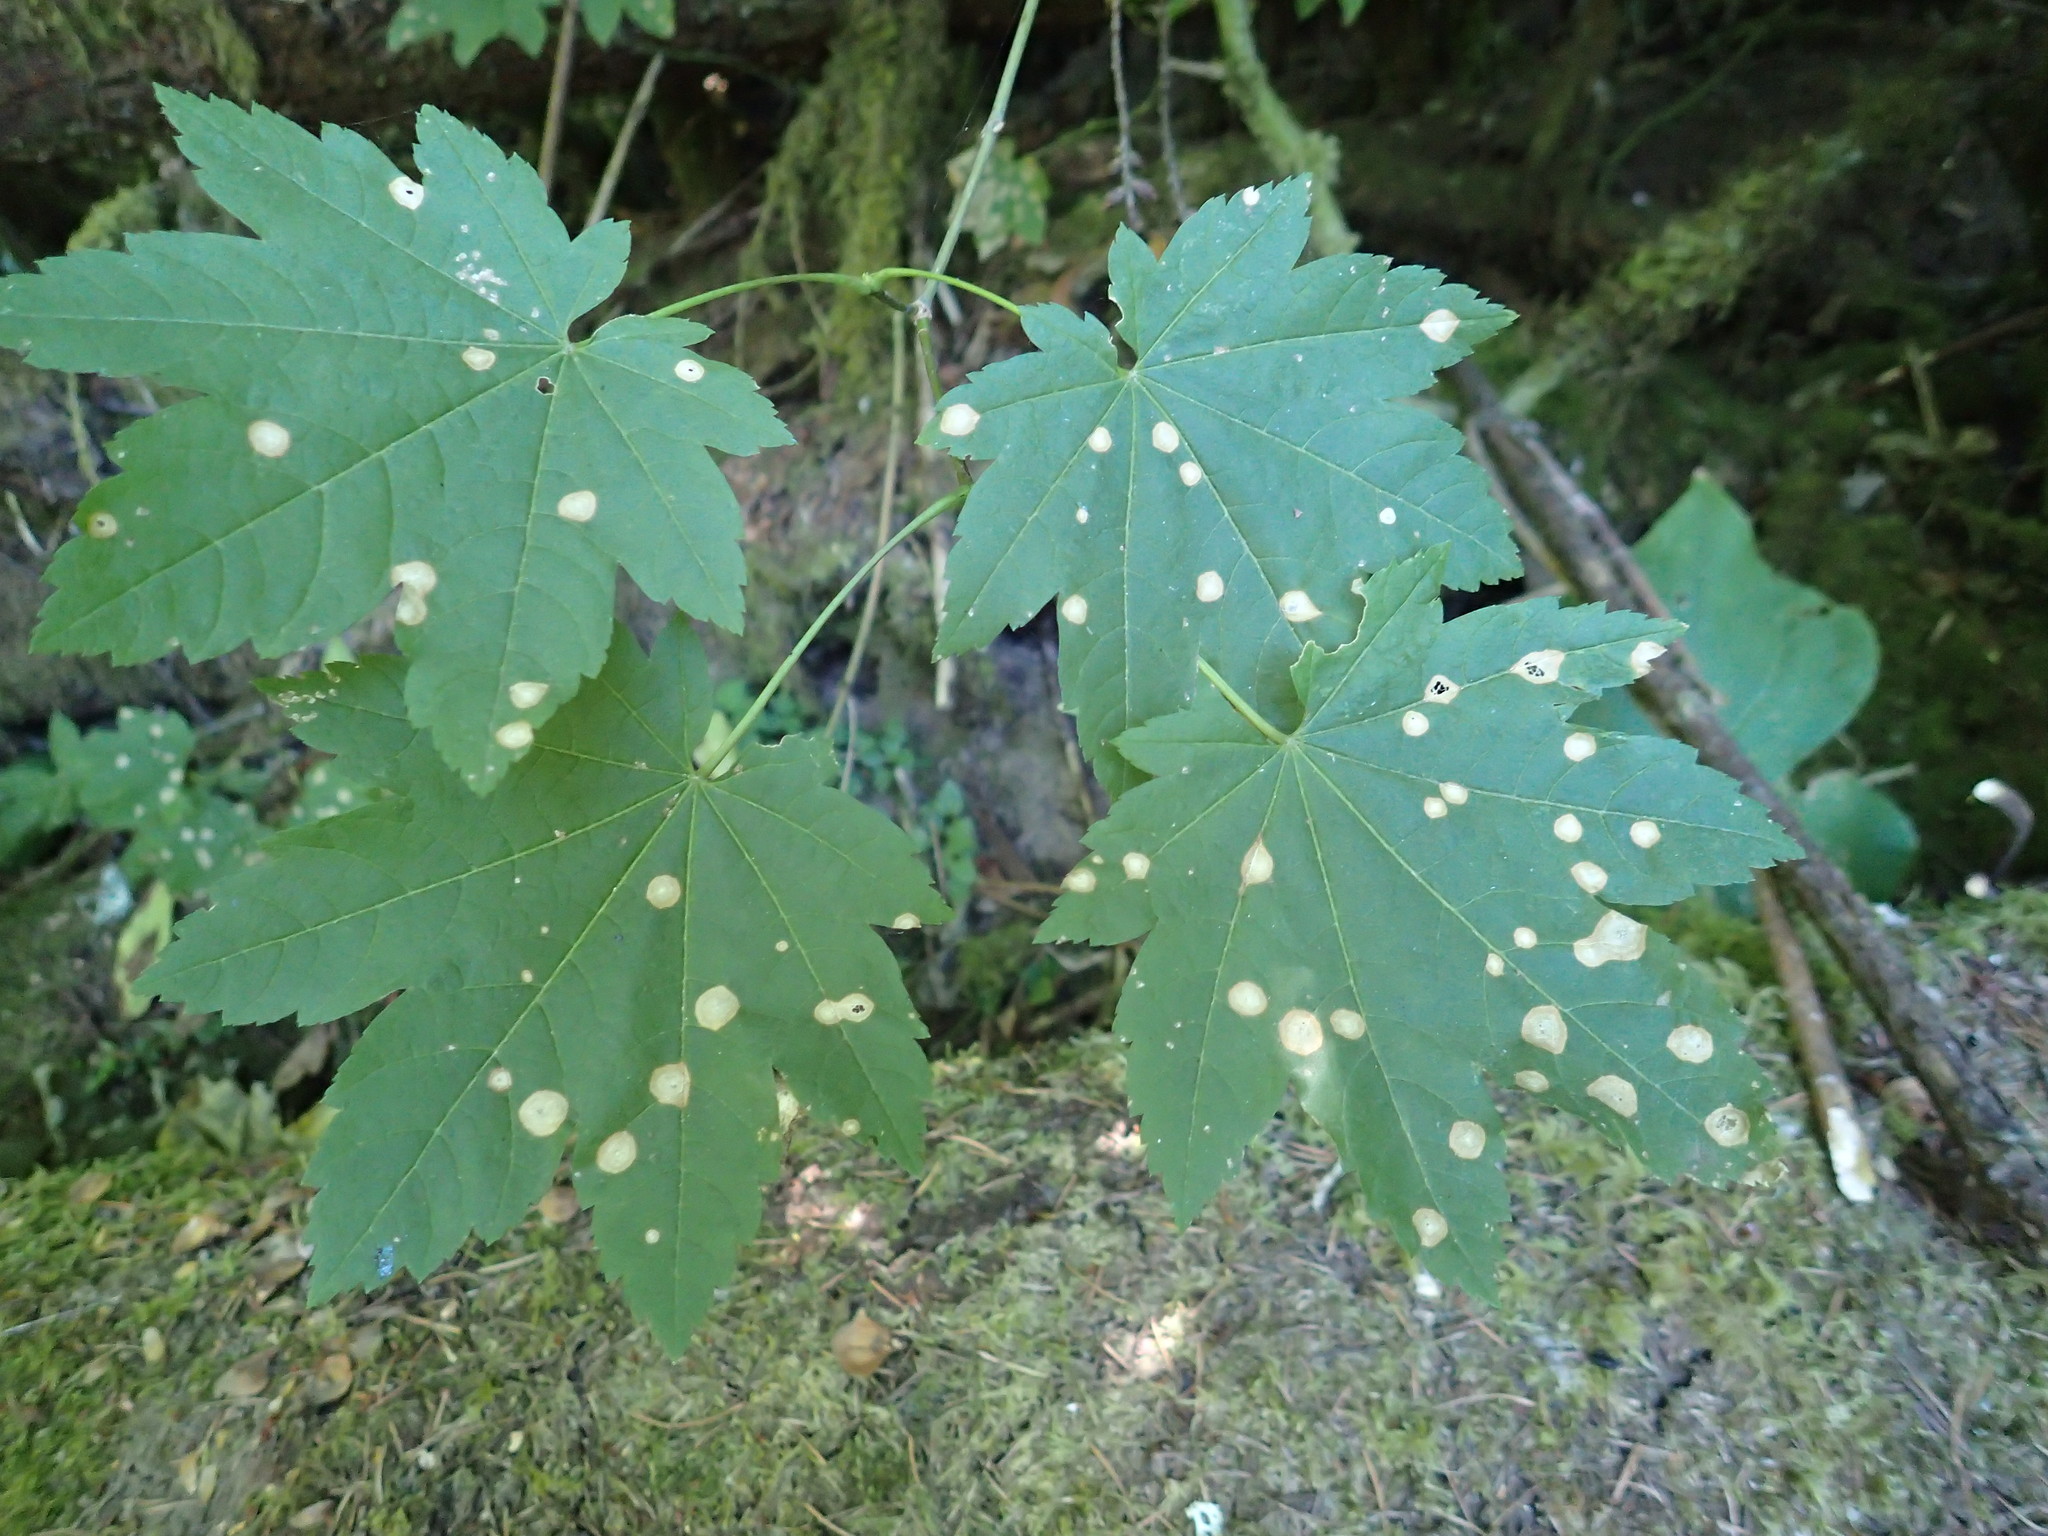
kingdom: Plantae
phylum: Tracheophyta
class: Magnoliopsida
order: Sapindales
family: Sapindaceae
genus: Acer
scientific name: Acer circinatum
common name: Vine maple
